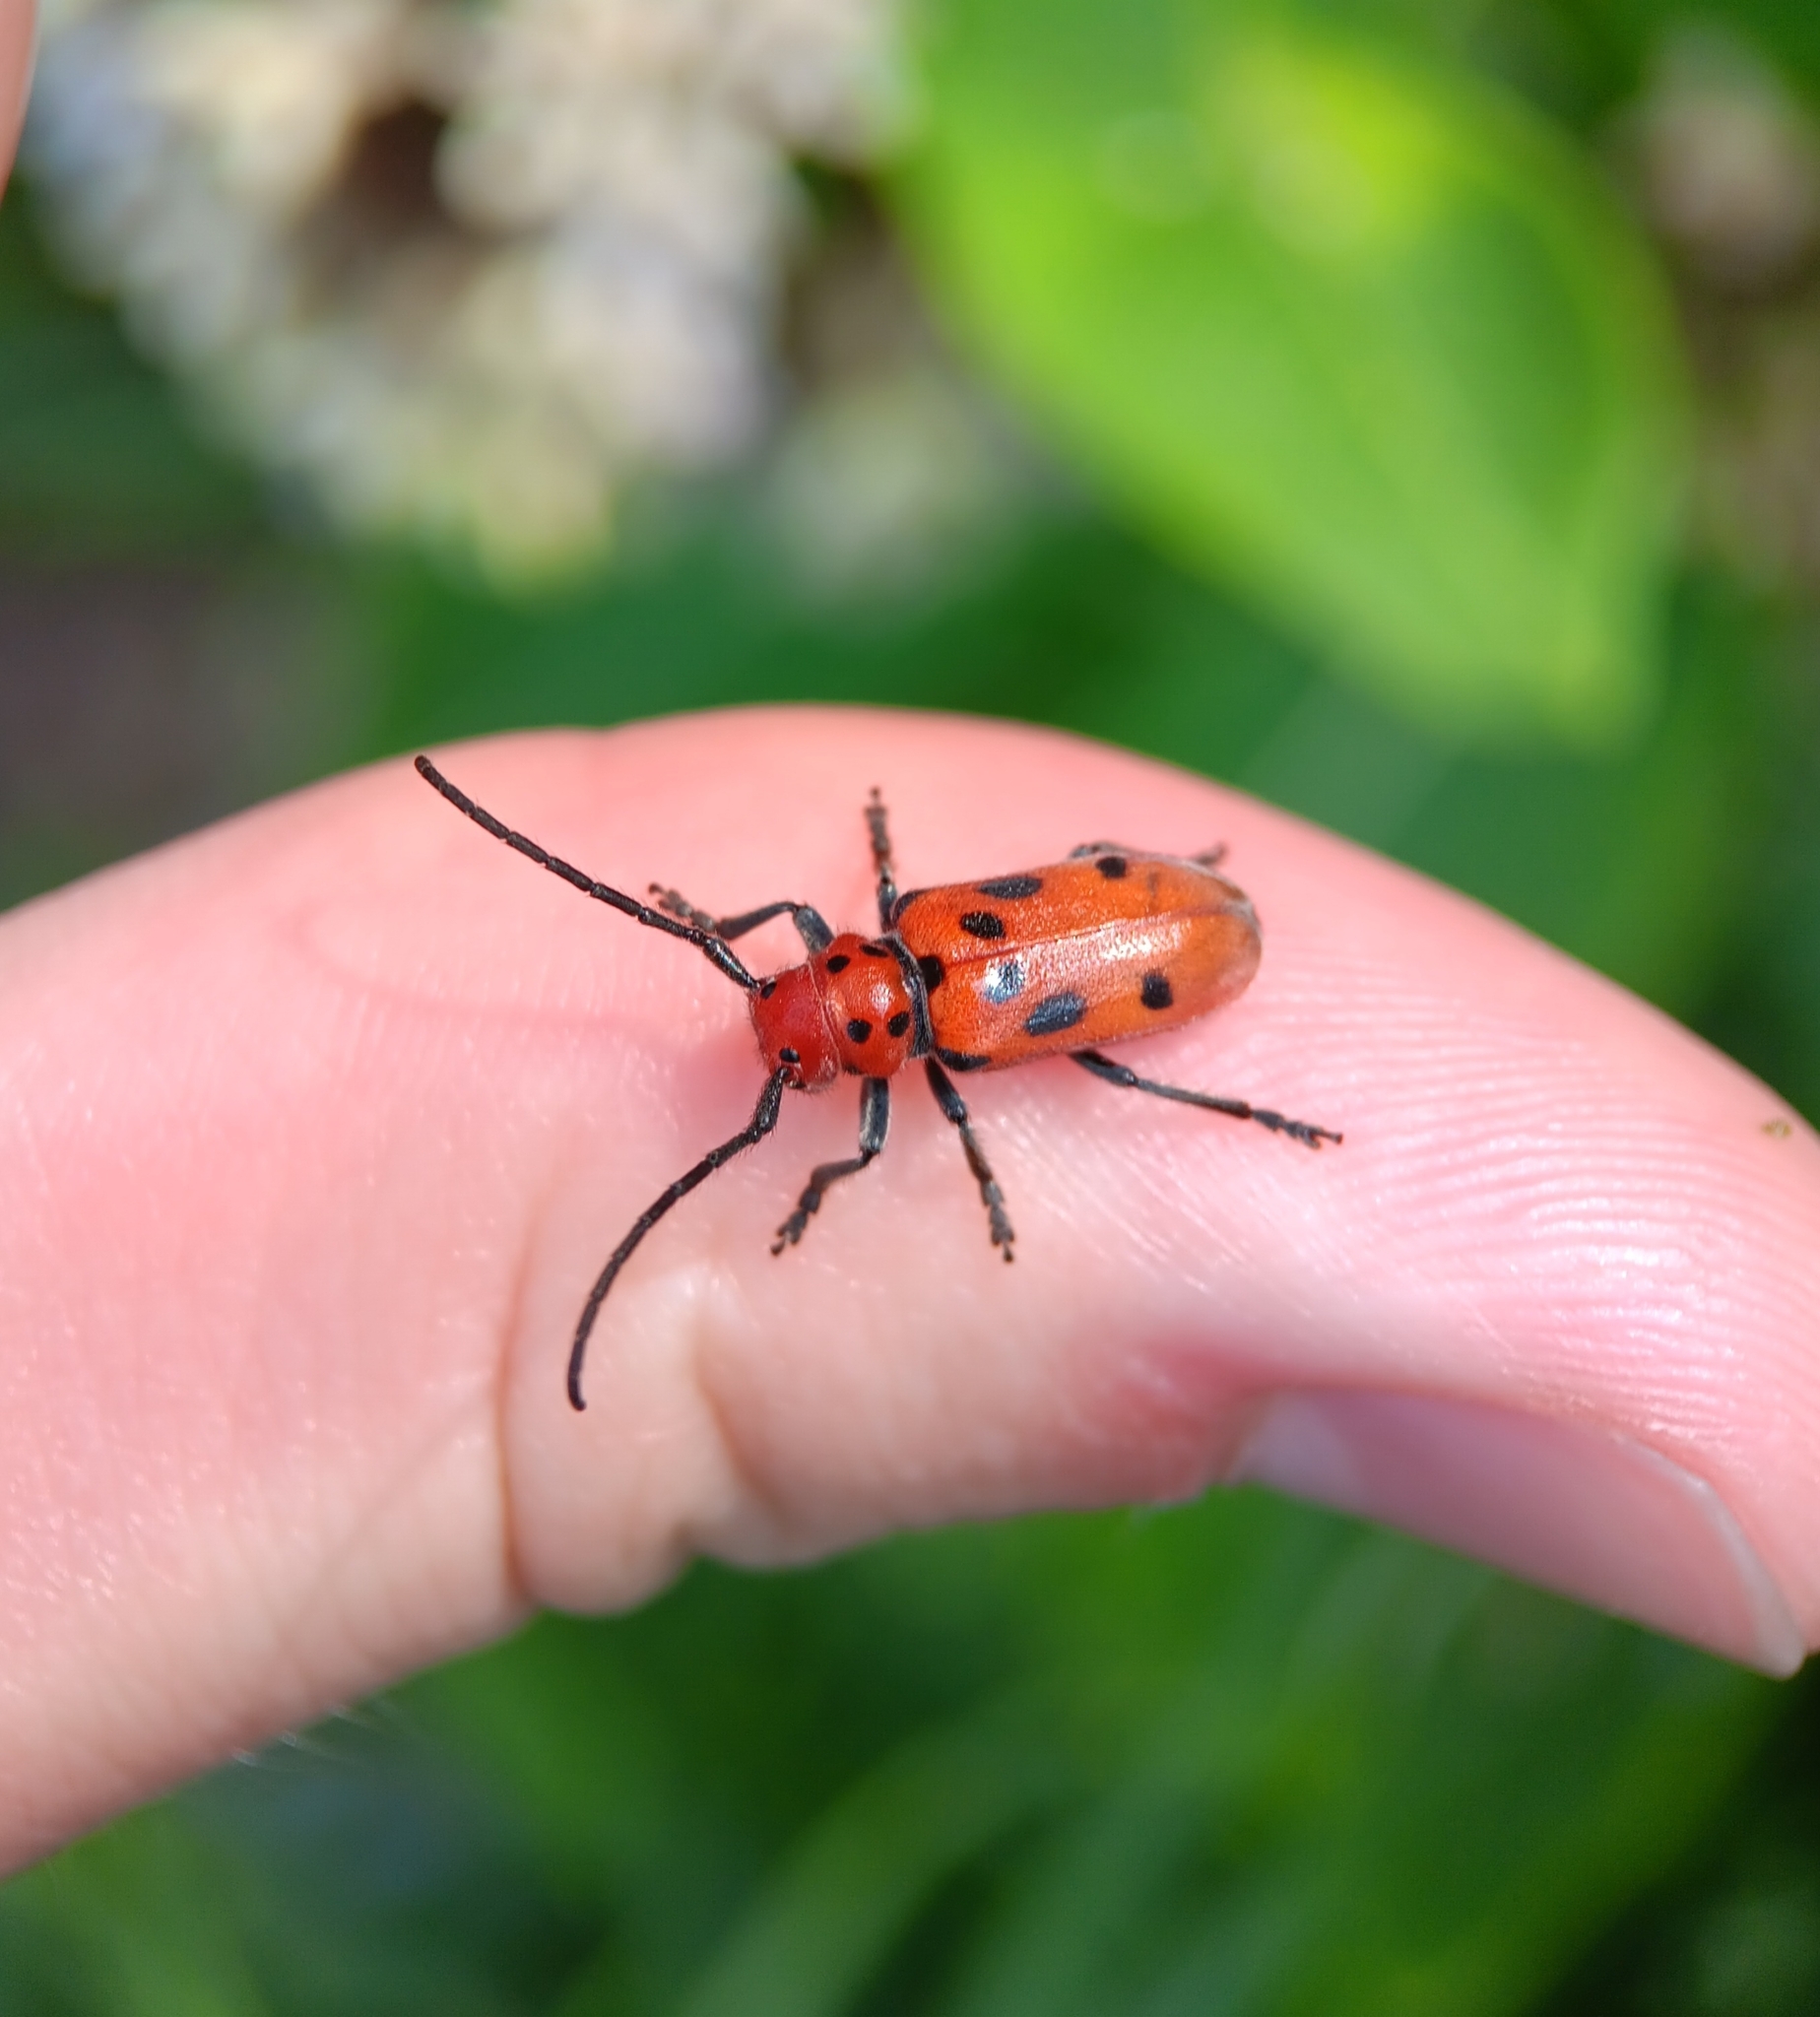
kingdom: Animalia
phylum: Arthropoda
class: Insecta
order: Coleoptera
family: Cerambycidae
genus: Tetraopes
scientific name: Tetraopes tetrophthalmus
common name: Red milkweed beetle
